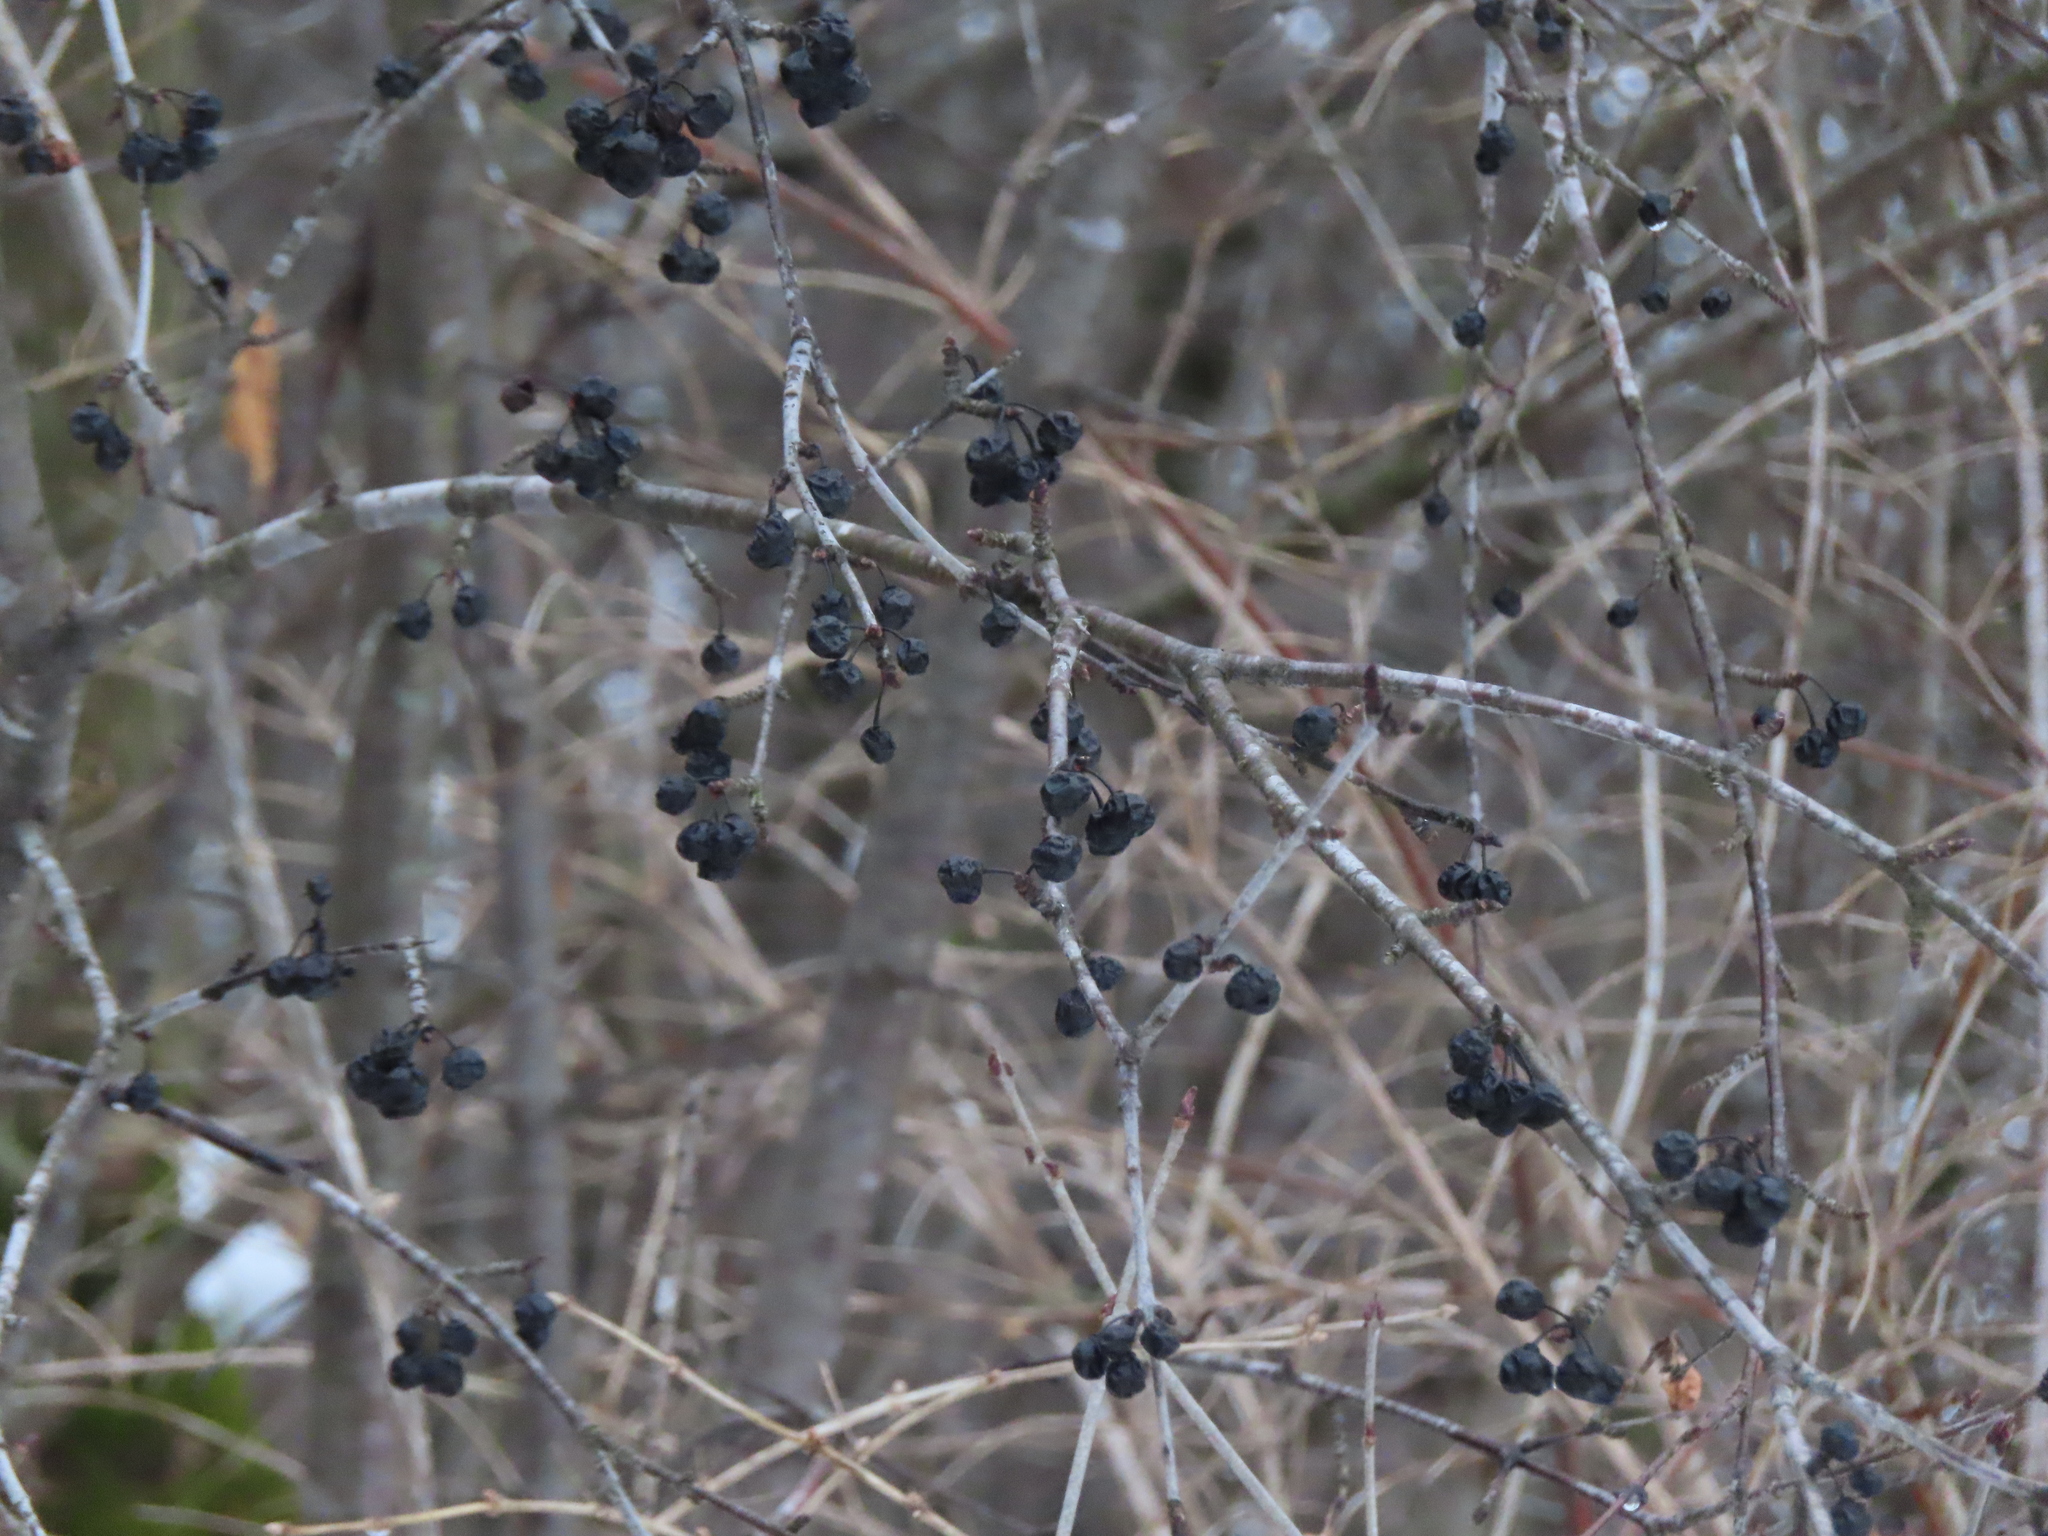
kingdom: Plantae
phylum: Tracheophyta
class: Magnoliopsida
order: Rosales
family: Rhamnaceae
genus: Rhamnus
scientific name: Rhamnus cathartica
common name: Common buckthorn
